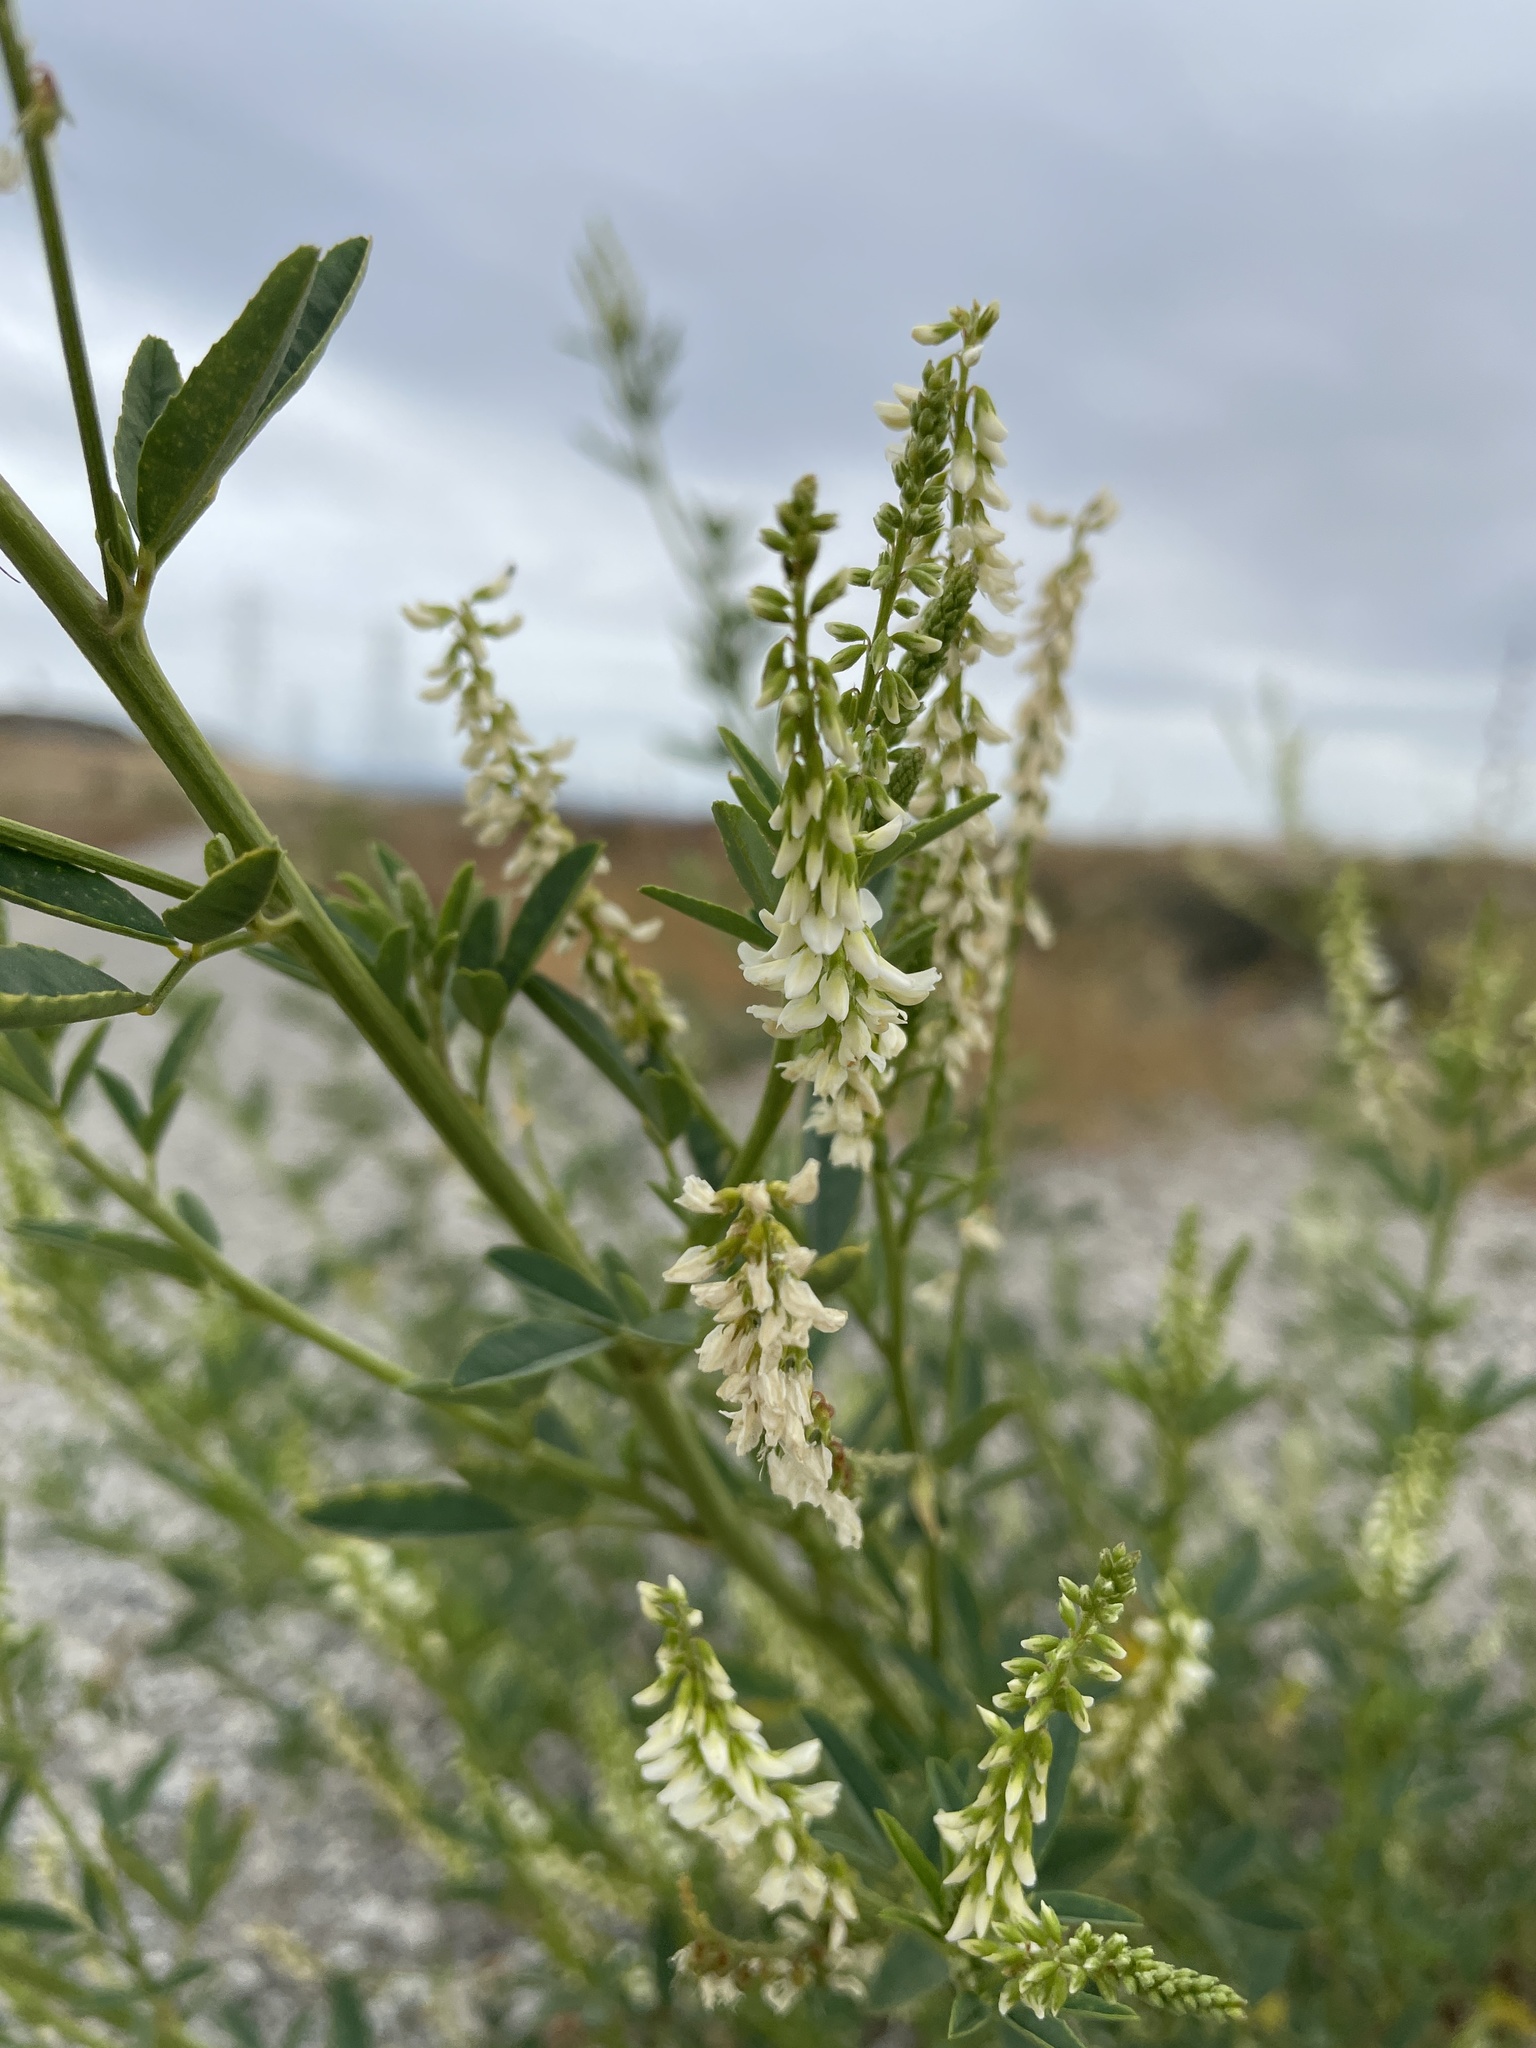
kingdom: Plantae
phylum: Tracheophyta
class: Magnoliopsida
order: Fabales
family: Fabaceae
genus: Melilotus
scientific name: Melilotus albus
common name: White melilot
